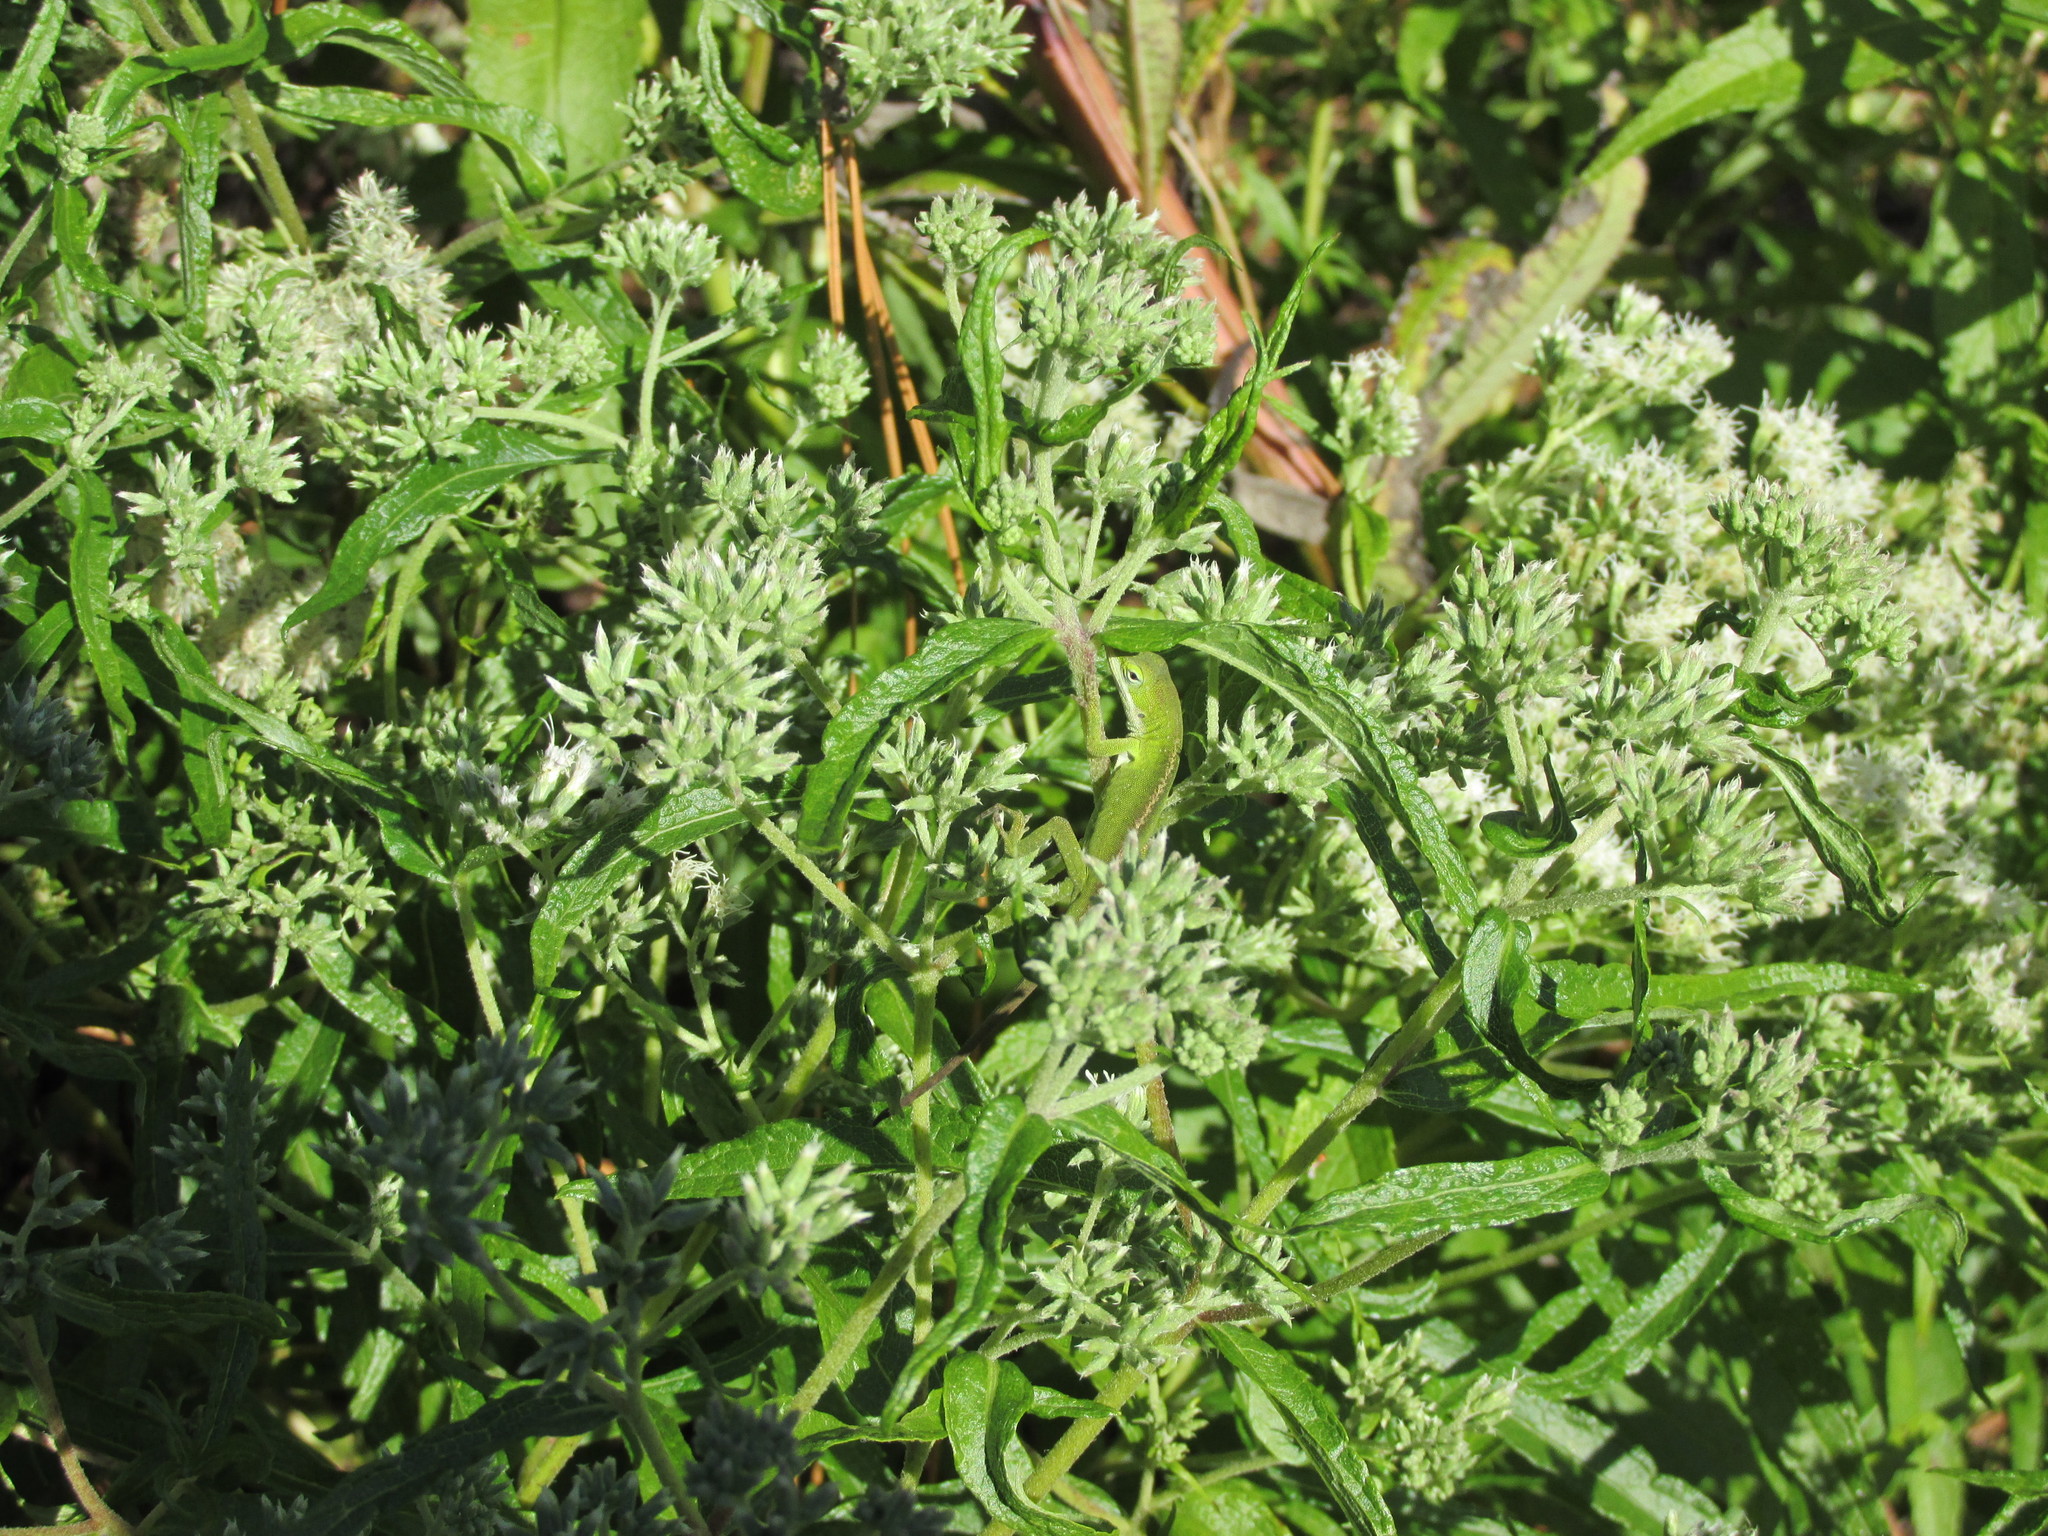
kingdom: Animalia
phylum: Chordata
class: Squamata
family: Dactyloidae
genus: Anolis
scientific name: Anolis carolinensis
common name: Green anole
